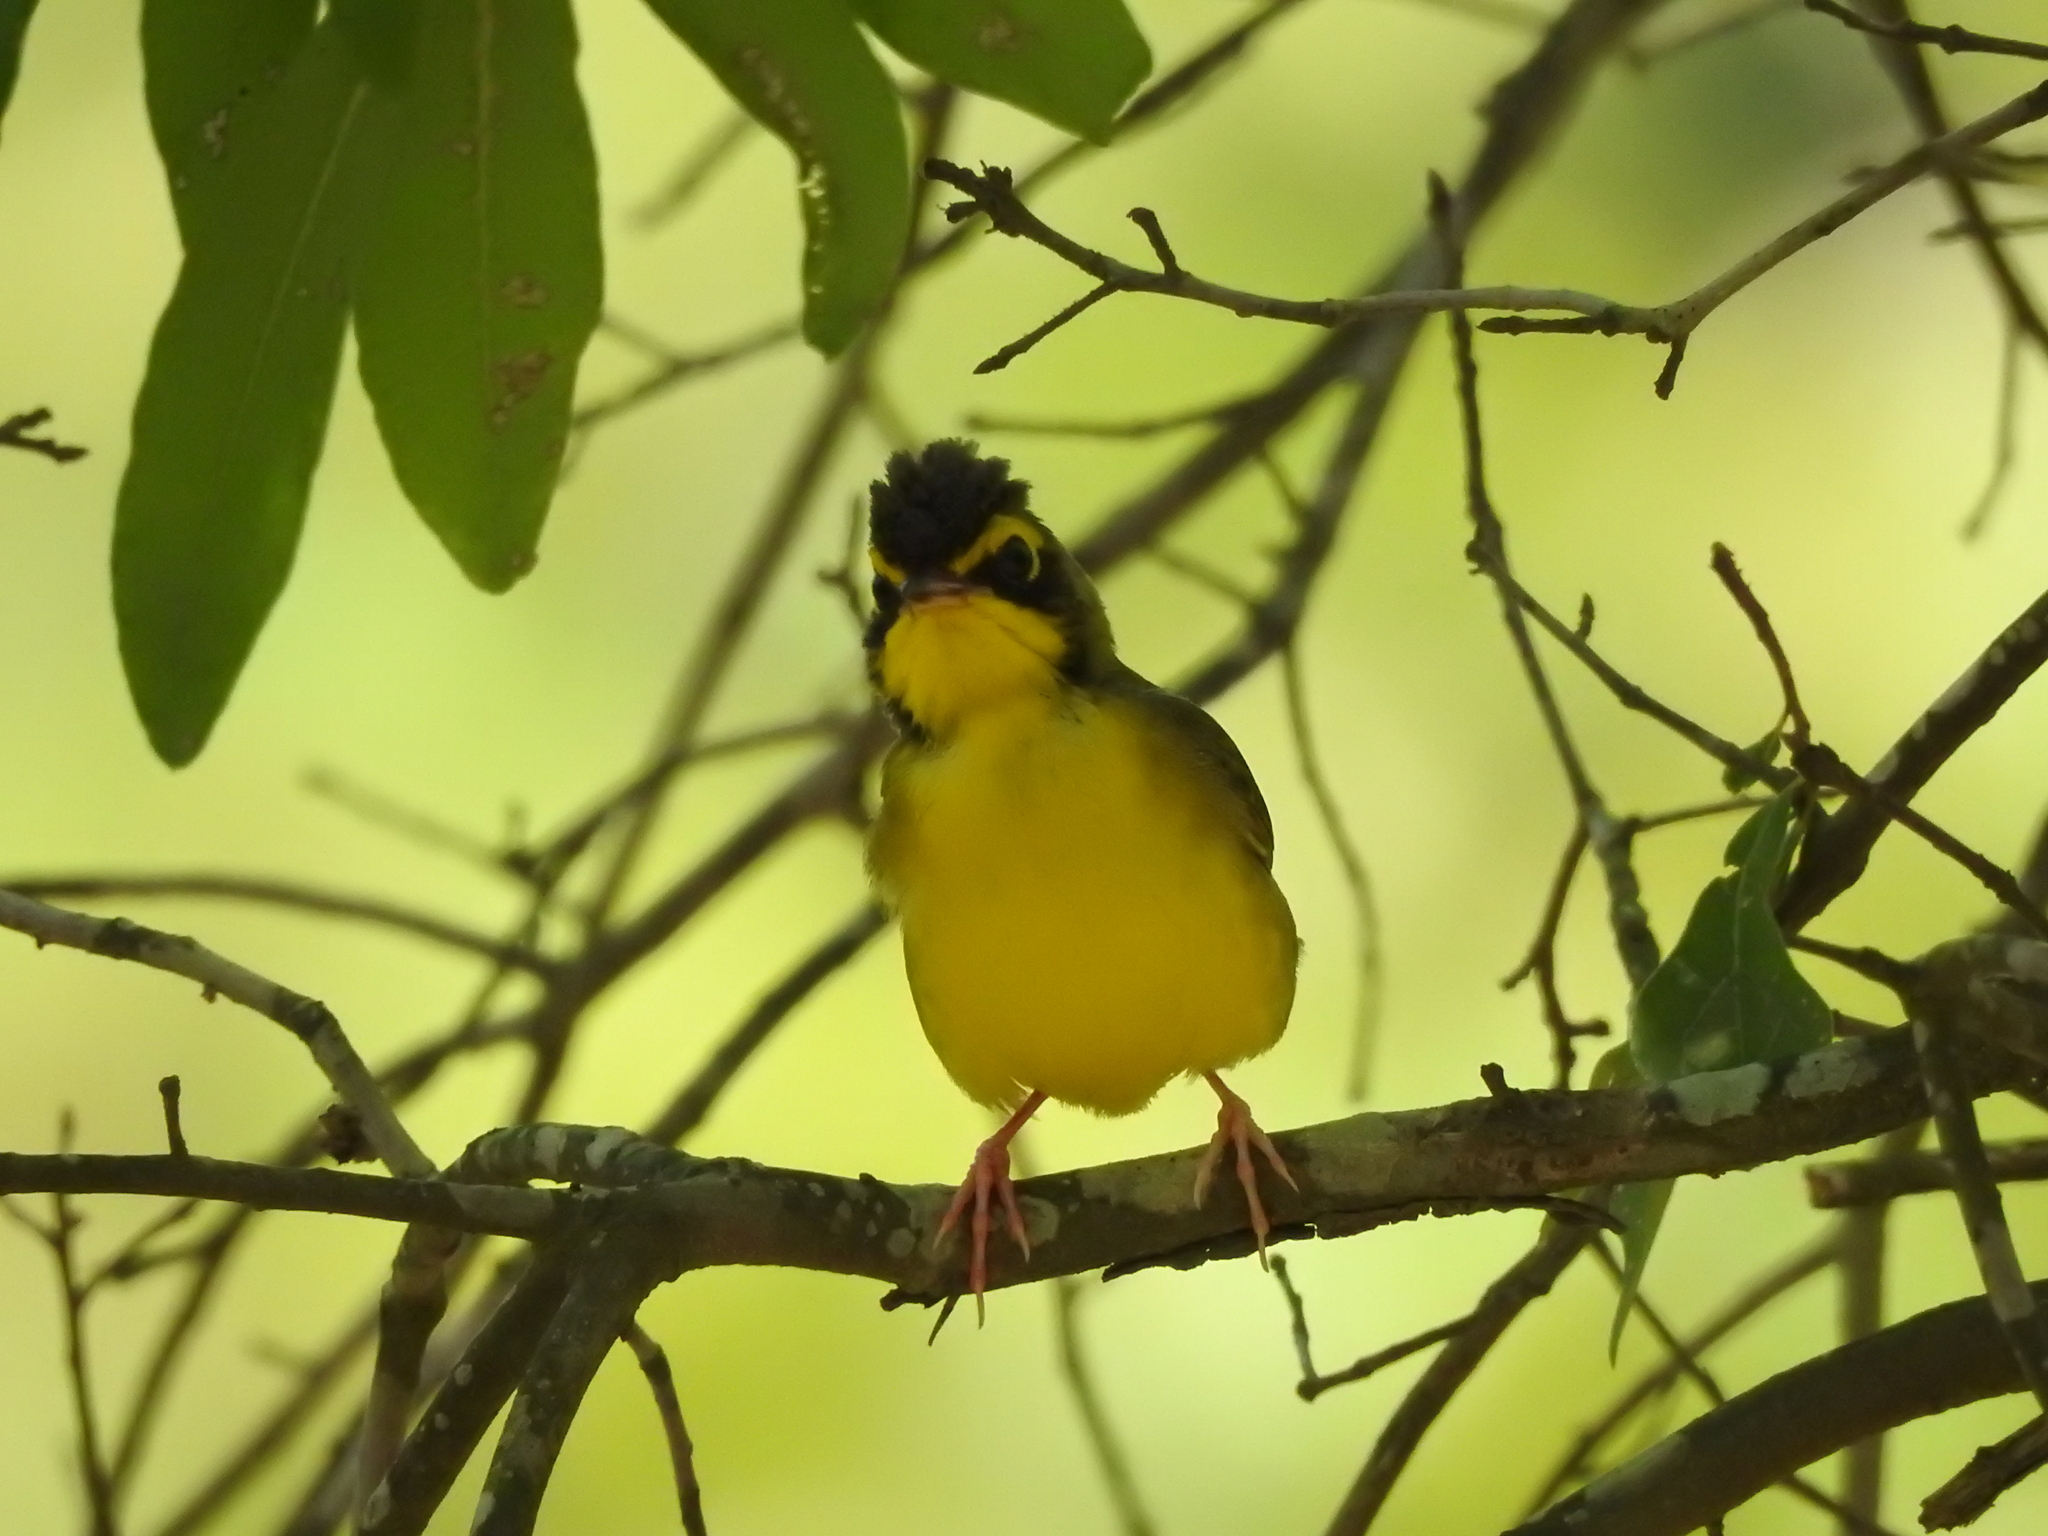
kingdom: Animalia
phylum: Chordata
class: Aves
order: Passeriformes
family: Parulidae
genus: Geothlypis
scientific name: Geothlypis formosa
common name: Kentucky warbler
